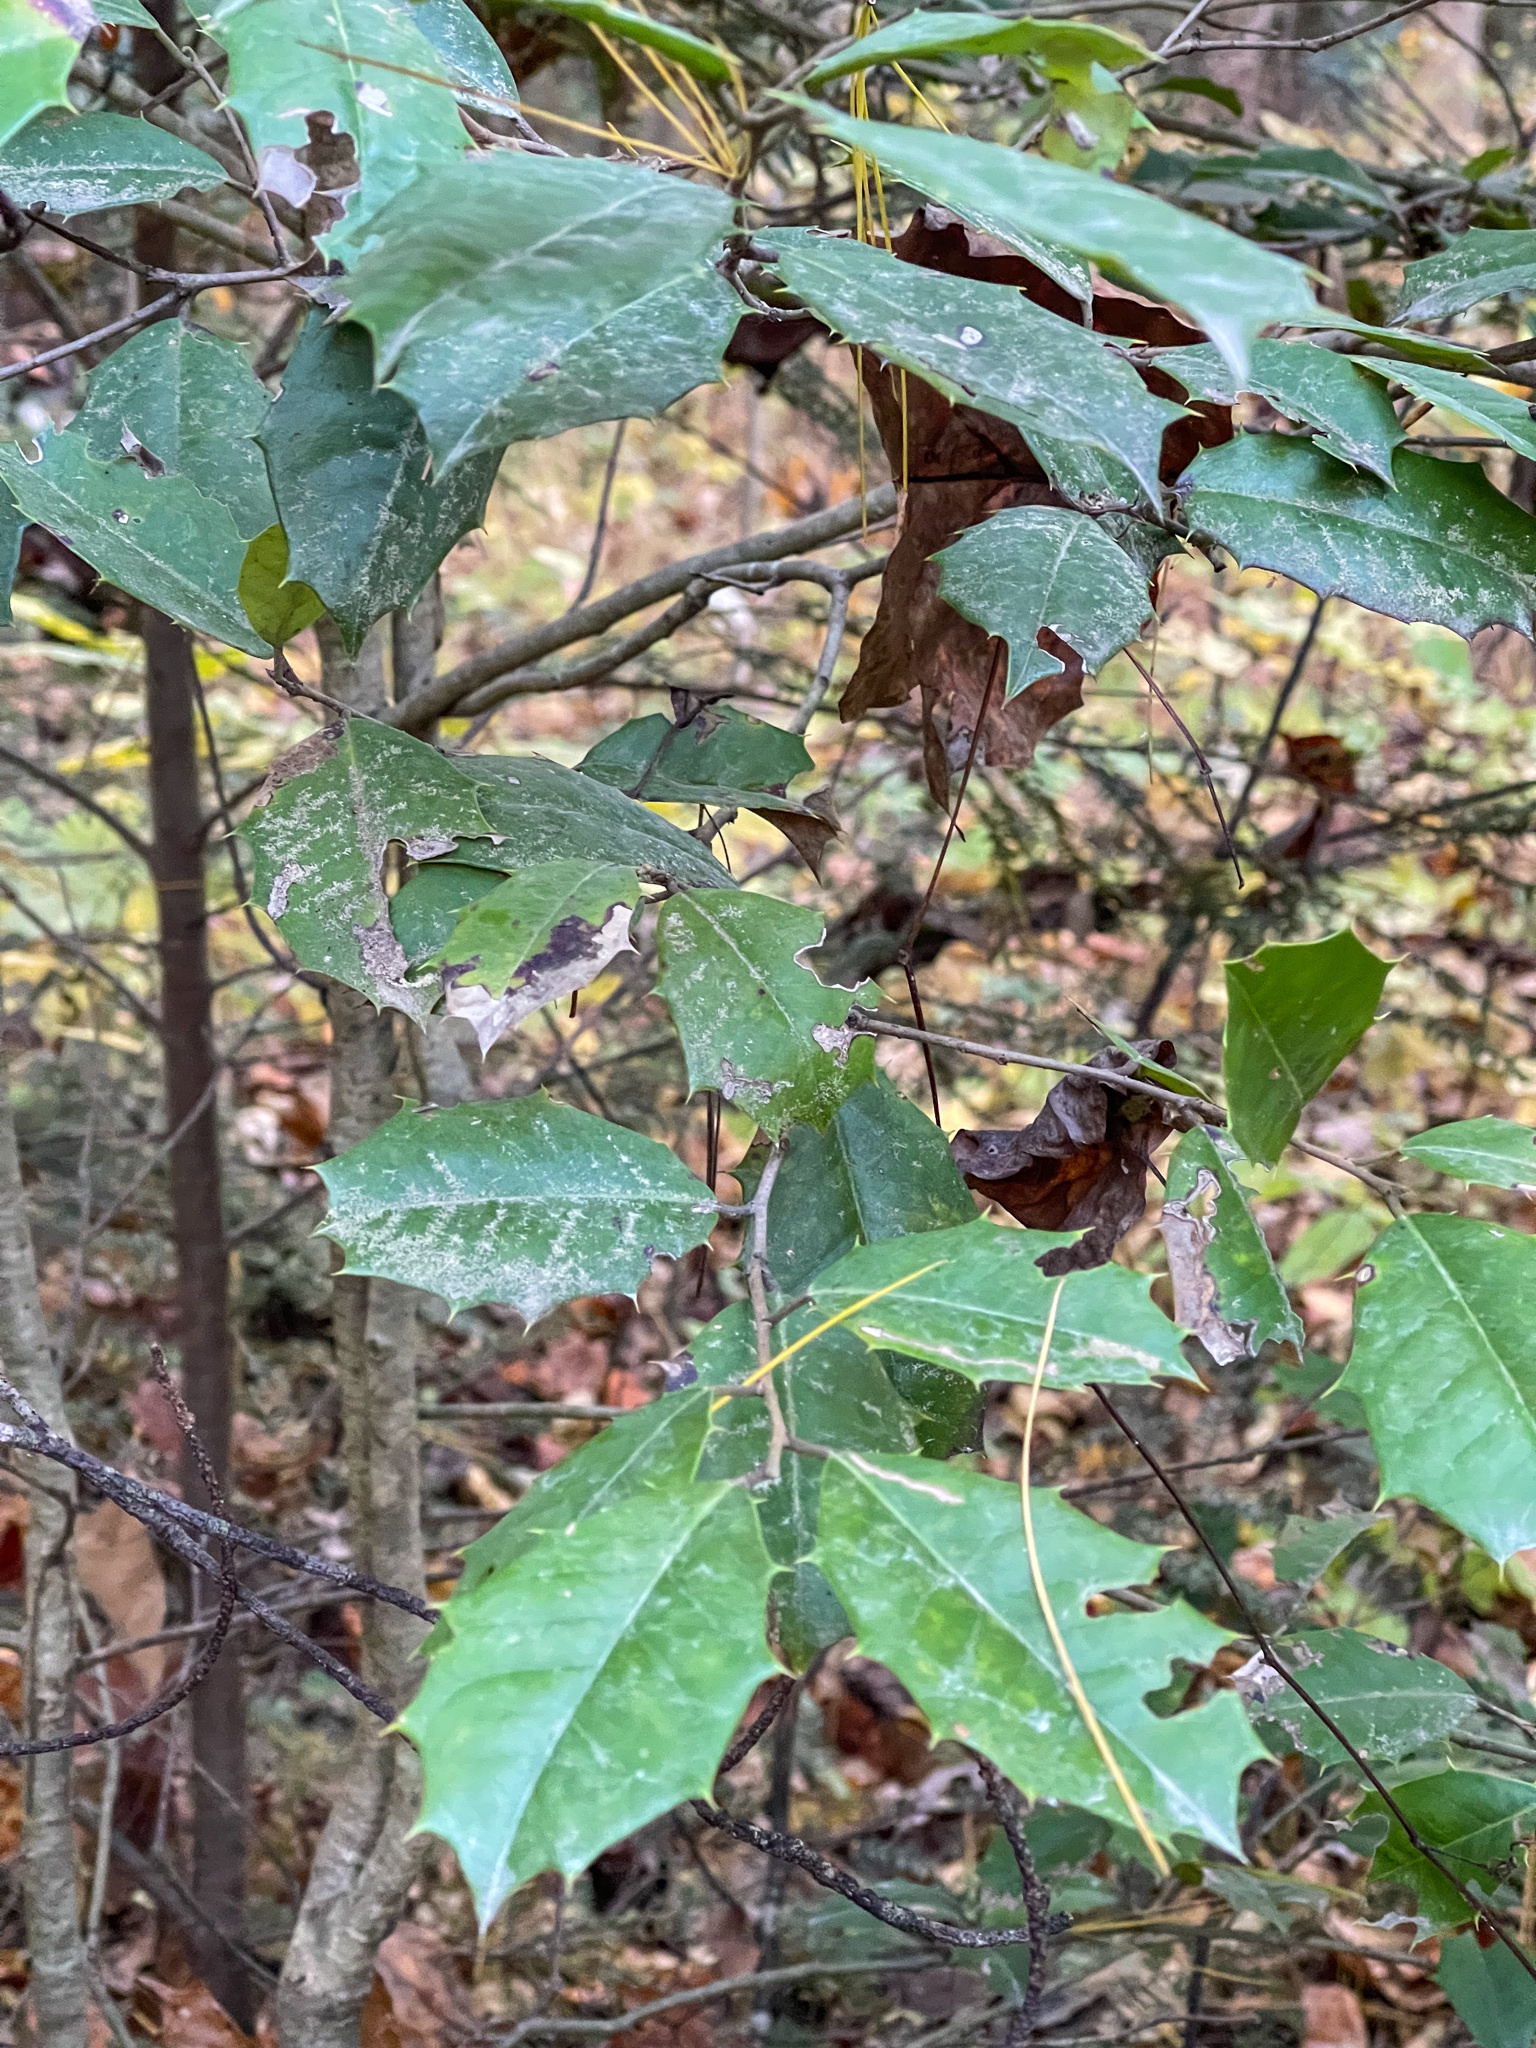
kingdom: Plantae
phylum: Tracheophyta
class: Magnoliopsida
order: Aquifoliales
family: Aquifoliaceae
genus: Ilex
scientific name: Ilex opaca
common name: American holly
